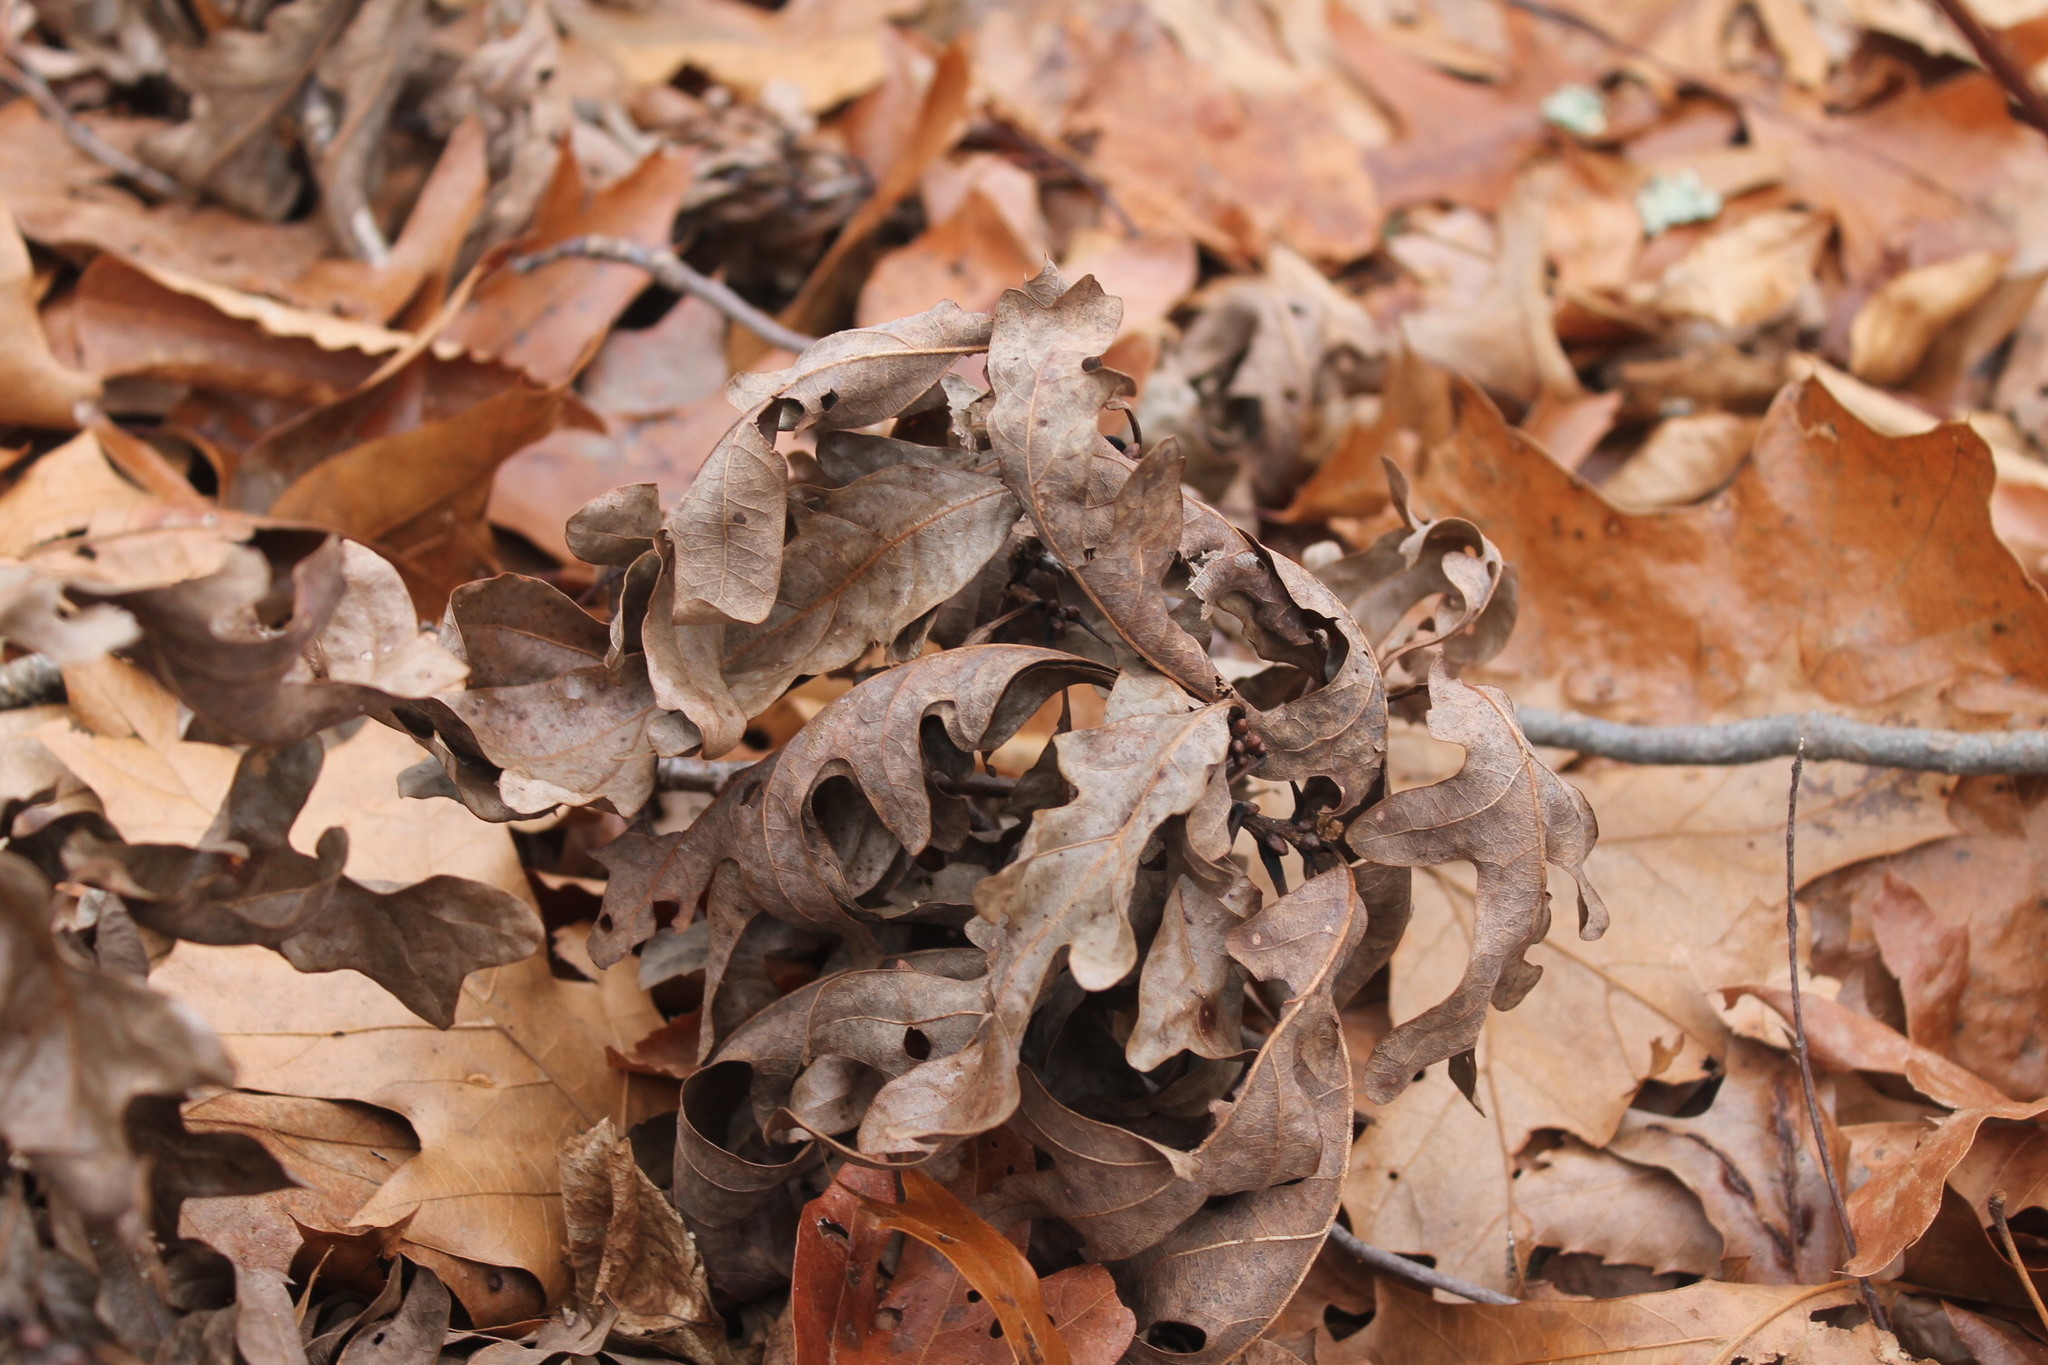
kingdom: Plantae
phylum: Tracheophyta
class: Magnoliopsida
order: Fagales
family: Fagaceae
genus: Quercus
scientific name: Quercus alba
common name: White oak
